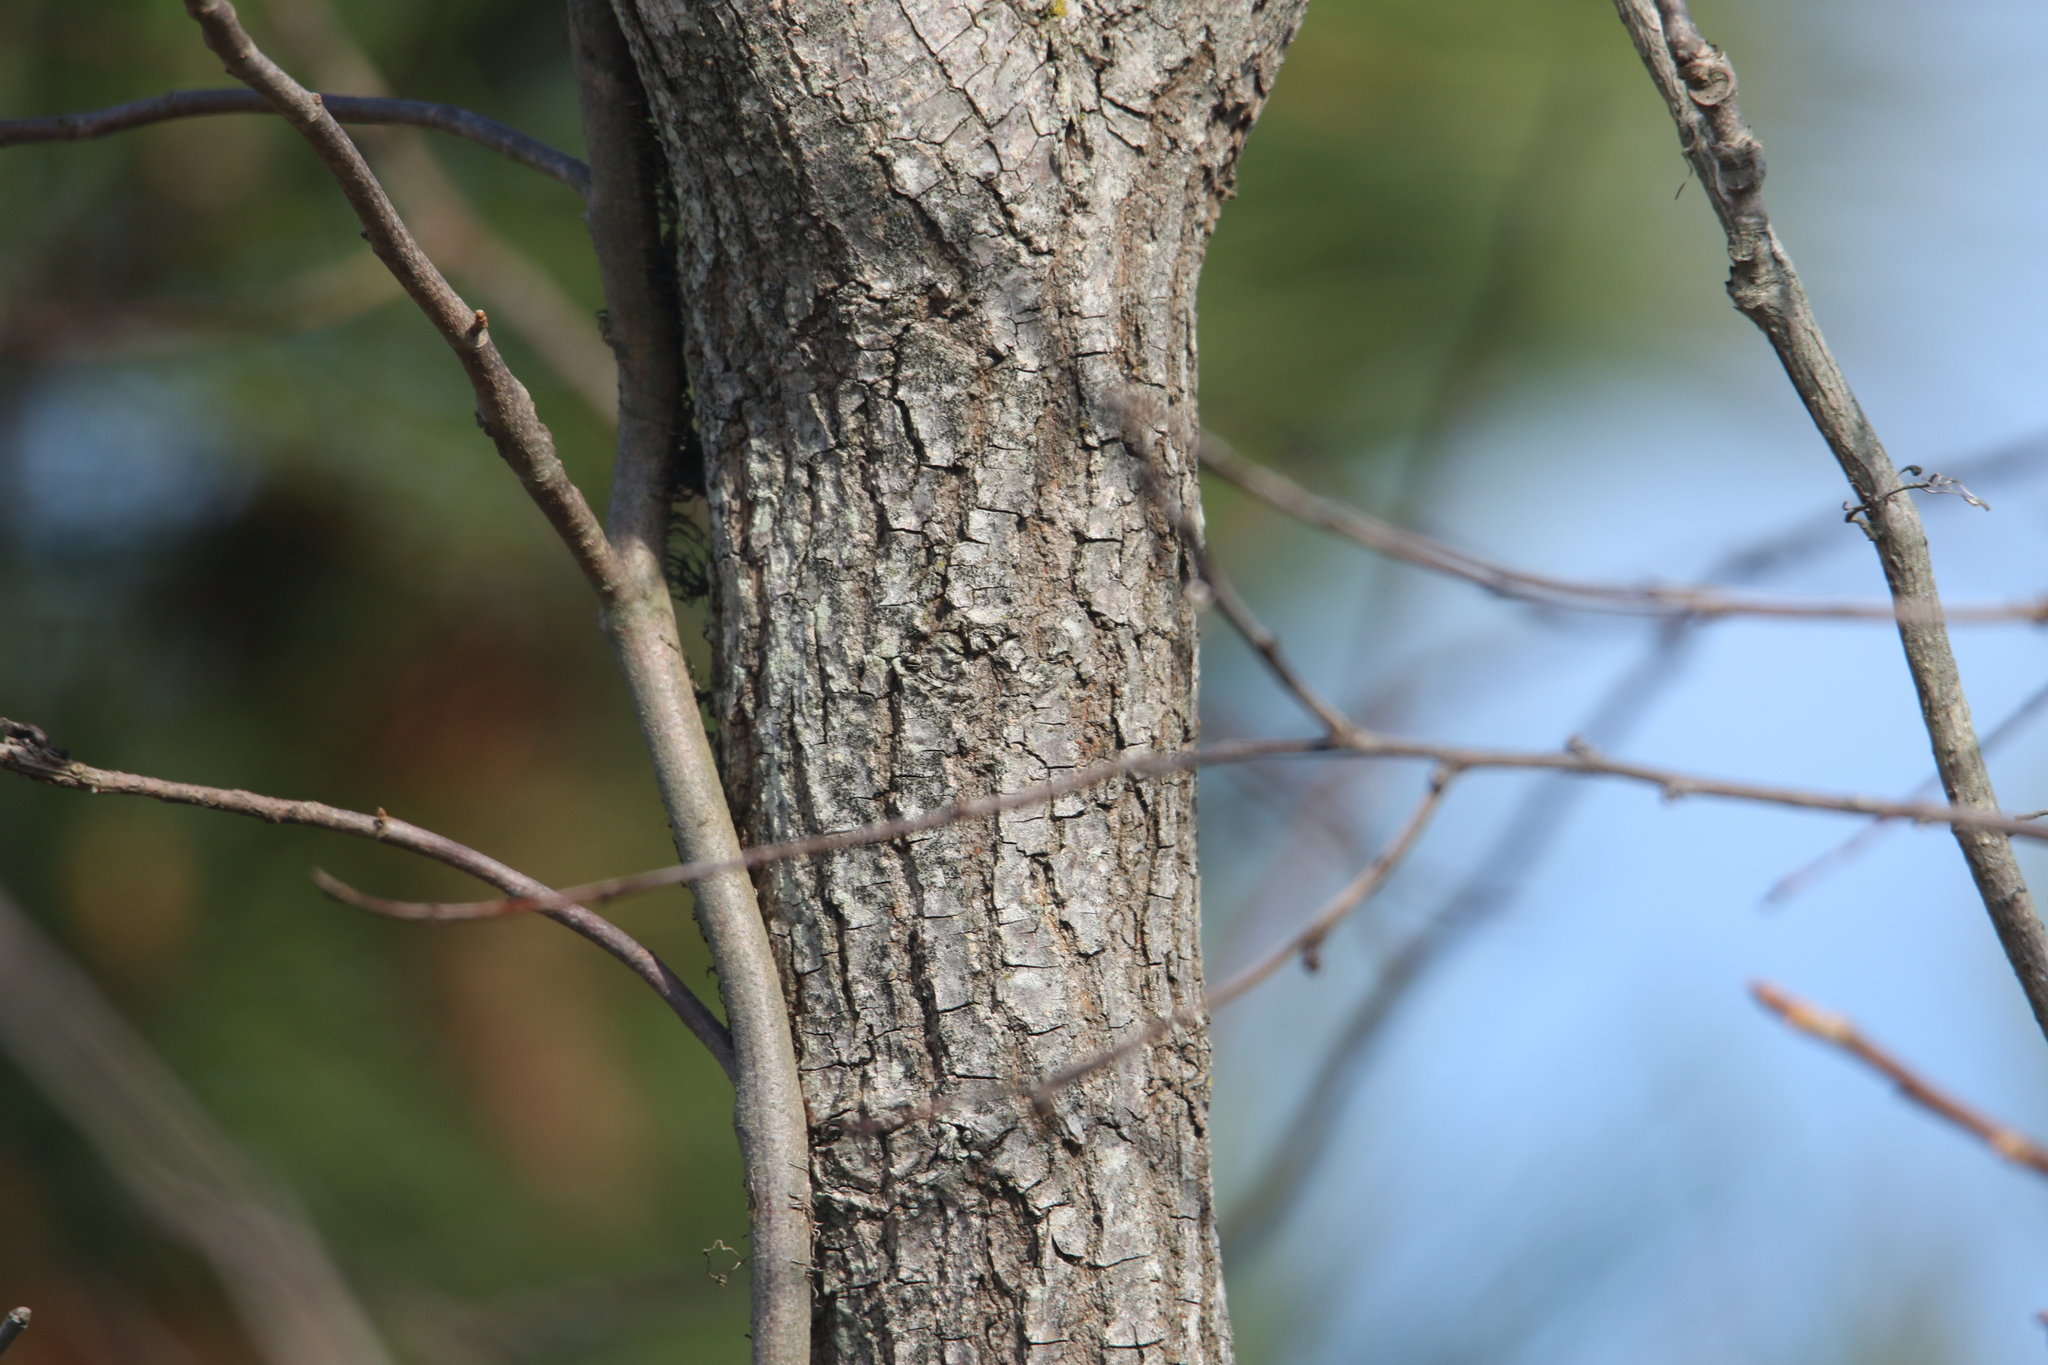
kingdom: Plantae
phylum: Tracheophyta
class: Magnoliopsida
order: Ericales
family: Ebenaceae
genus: Diospyros
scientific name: Diospyros virginiana
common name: Persimmon
